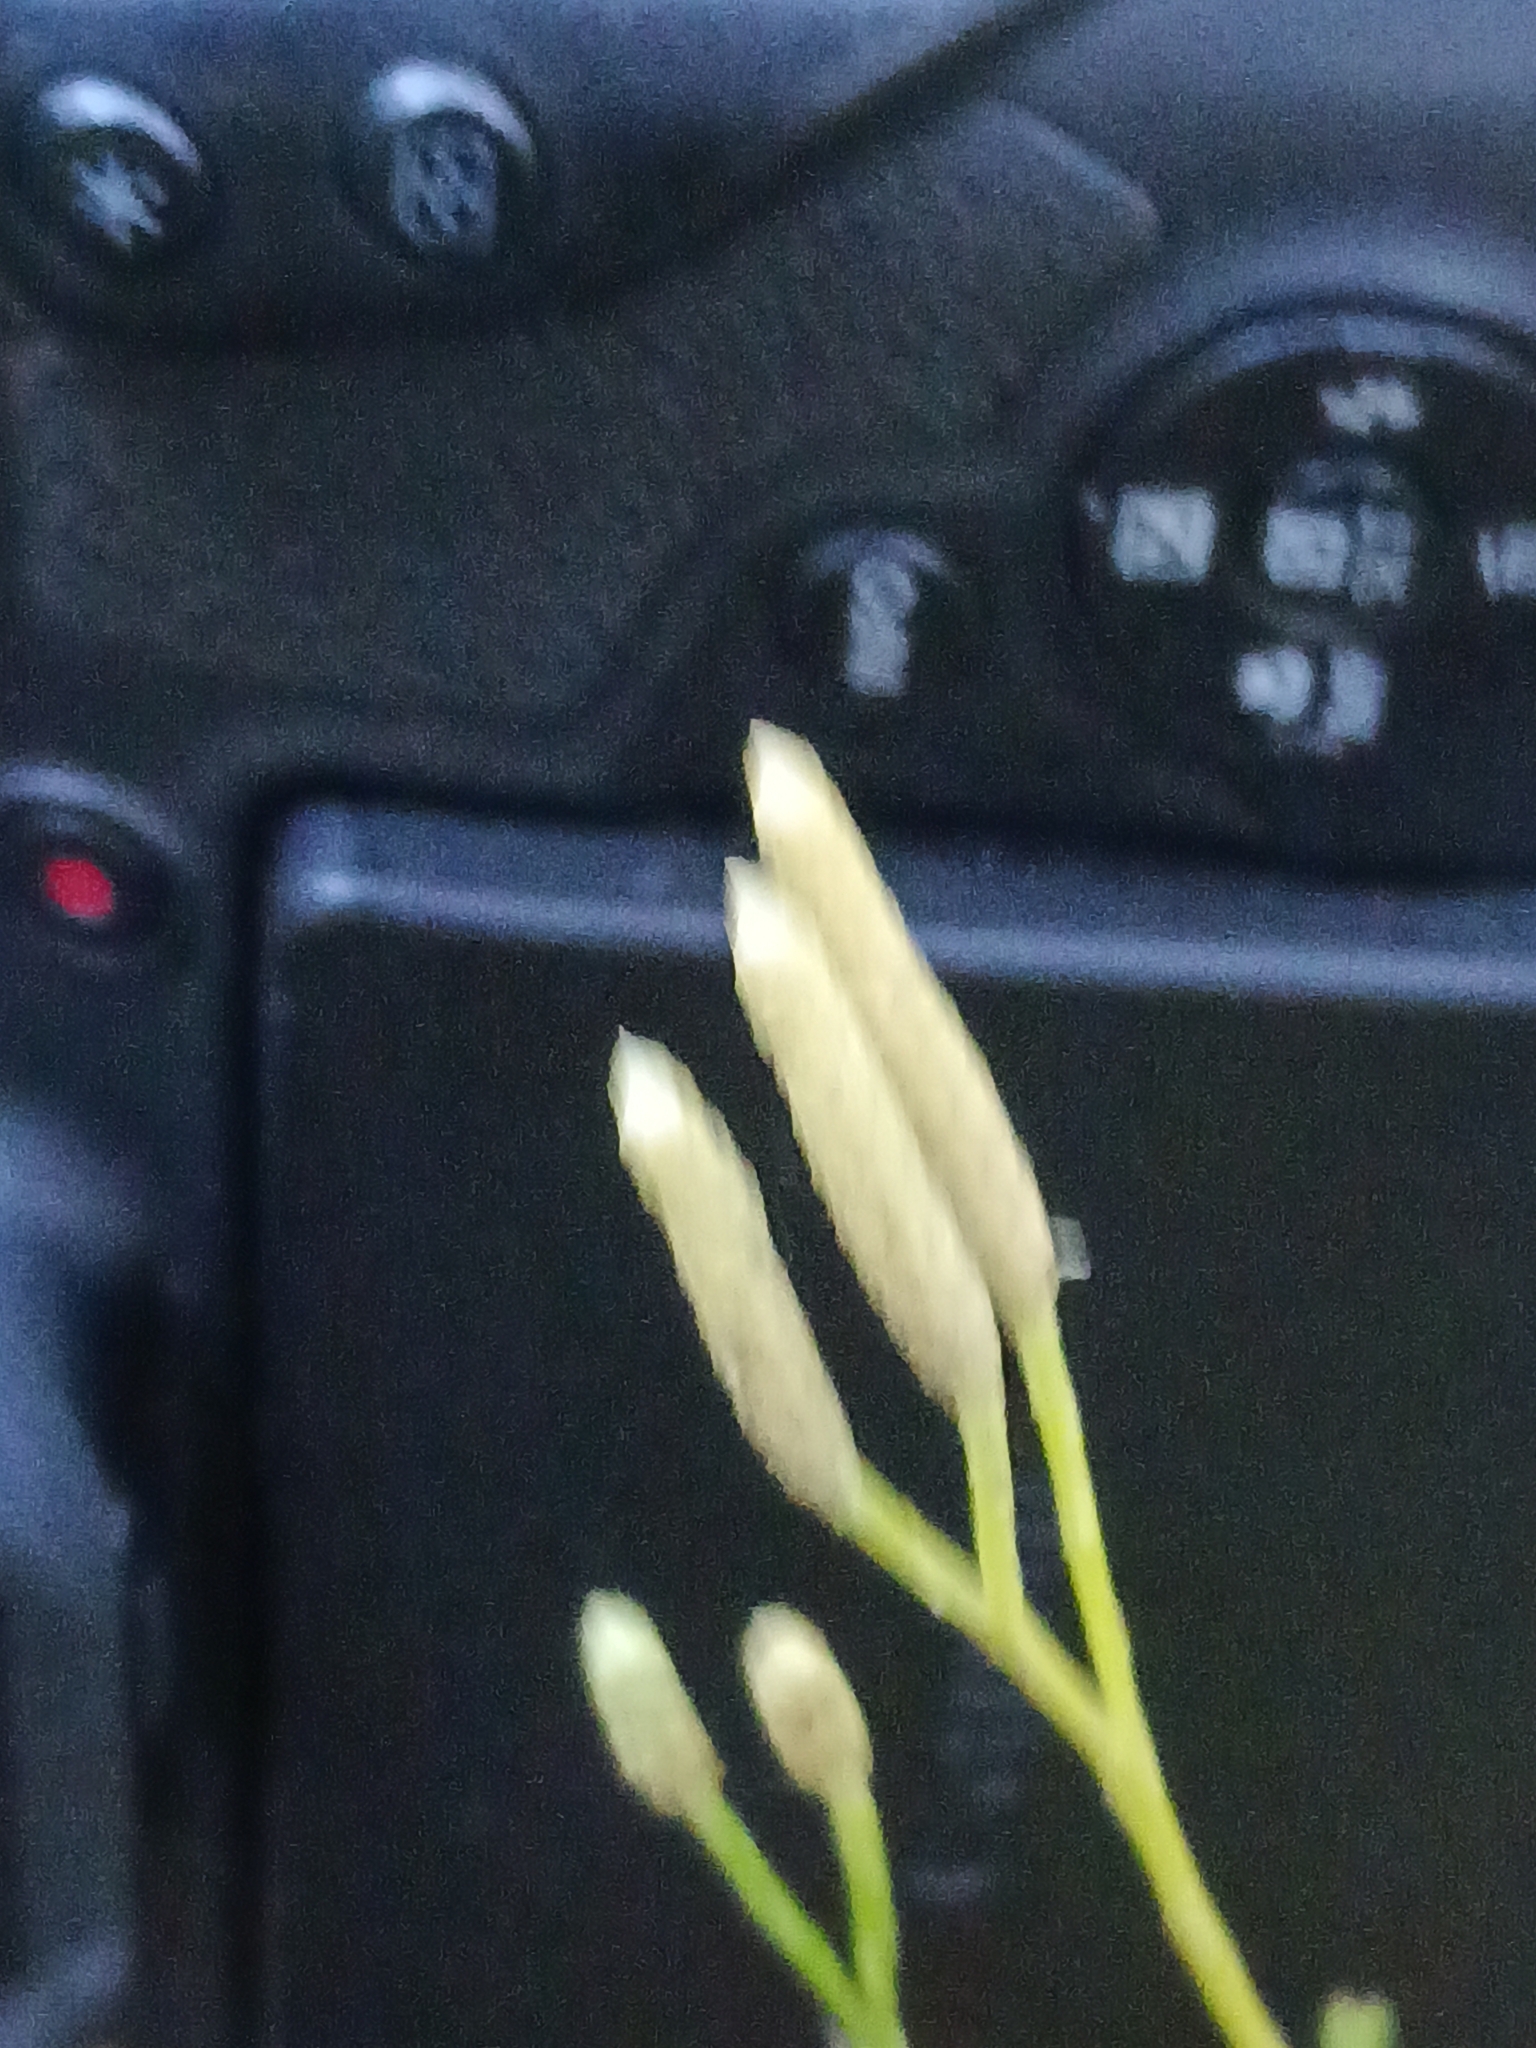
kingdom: Plantae
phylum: Tracheophyta
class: Lycopodiopsida
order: Lycopodiales
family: Lycopodiaceae
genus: Diphasiastrum
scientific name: Diphasiastrum complanatum
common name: Northern running-pine
